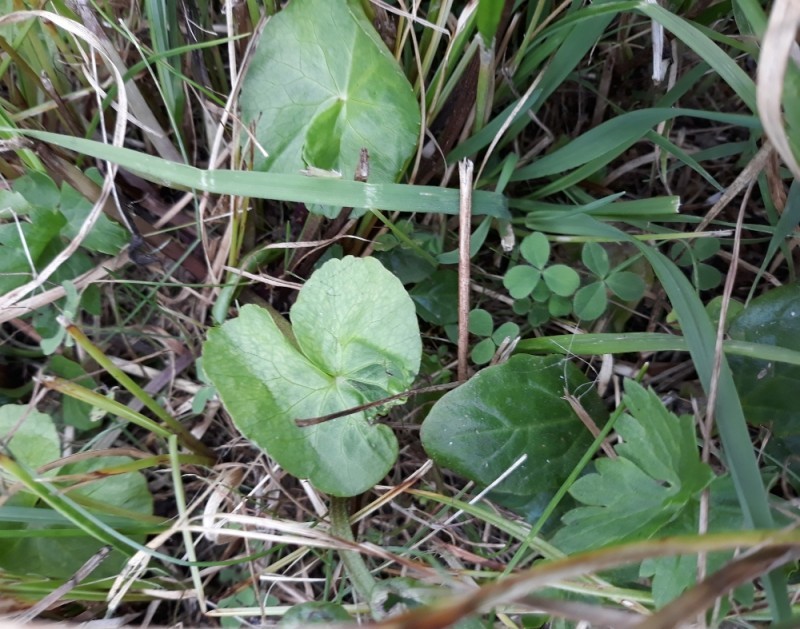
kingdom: Plantae
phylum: Tracheophyta
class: Magnoliopsida
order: Ranunculales
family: Ranunculaceae
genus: Caltha
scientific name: Caltha palustris
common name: Marsh marigold
